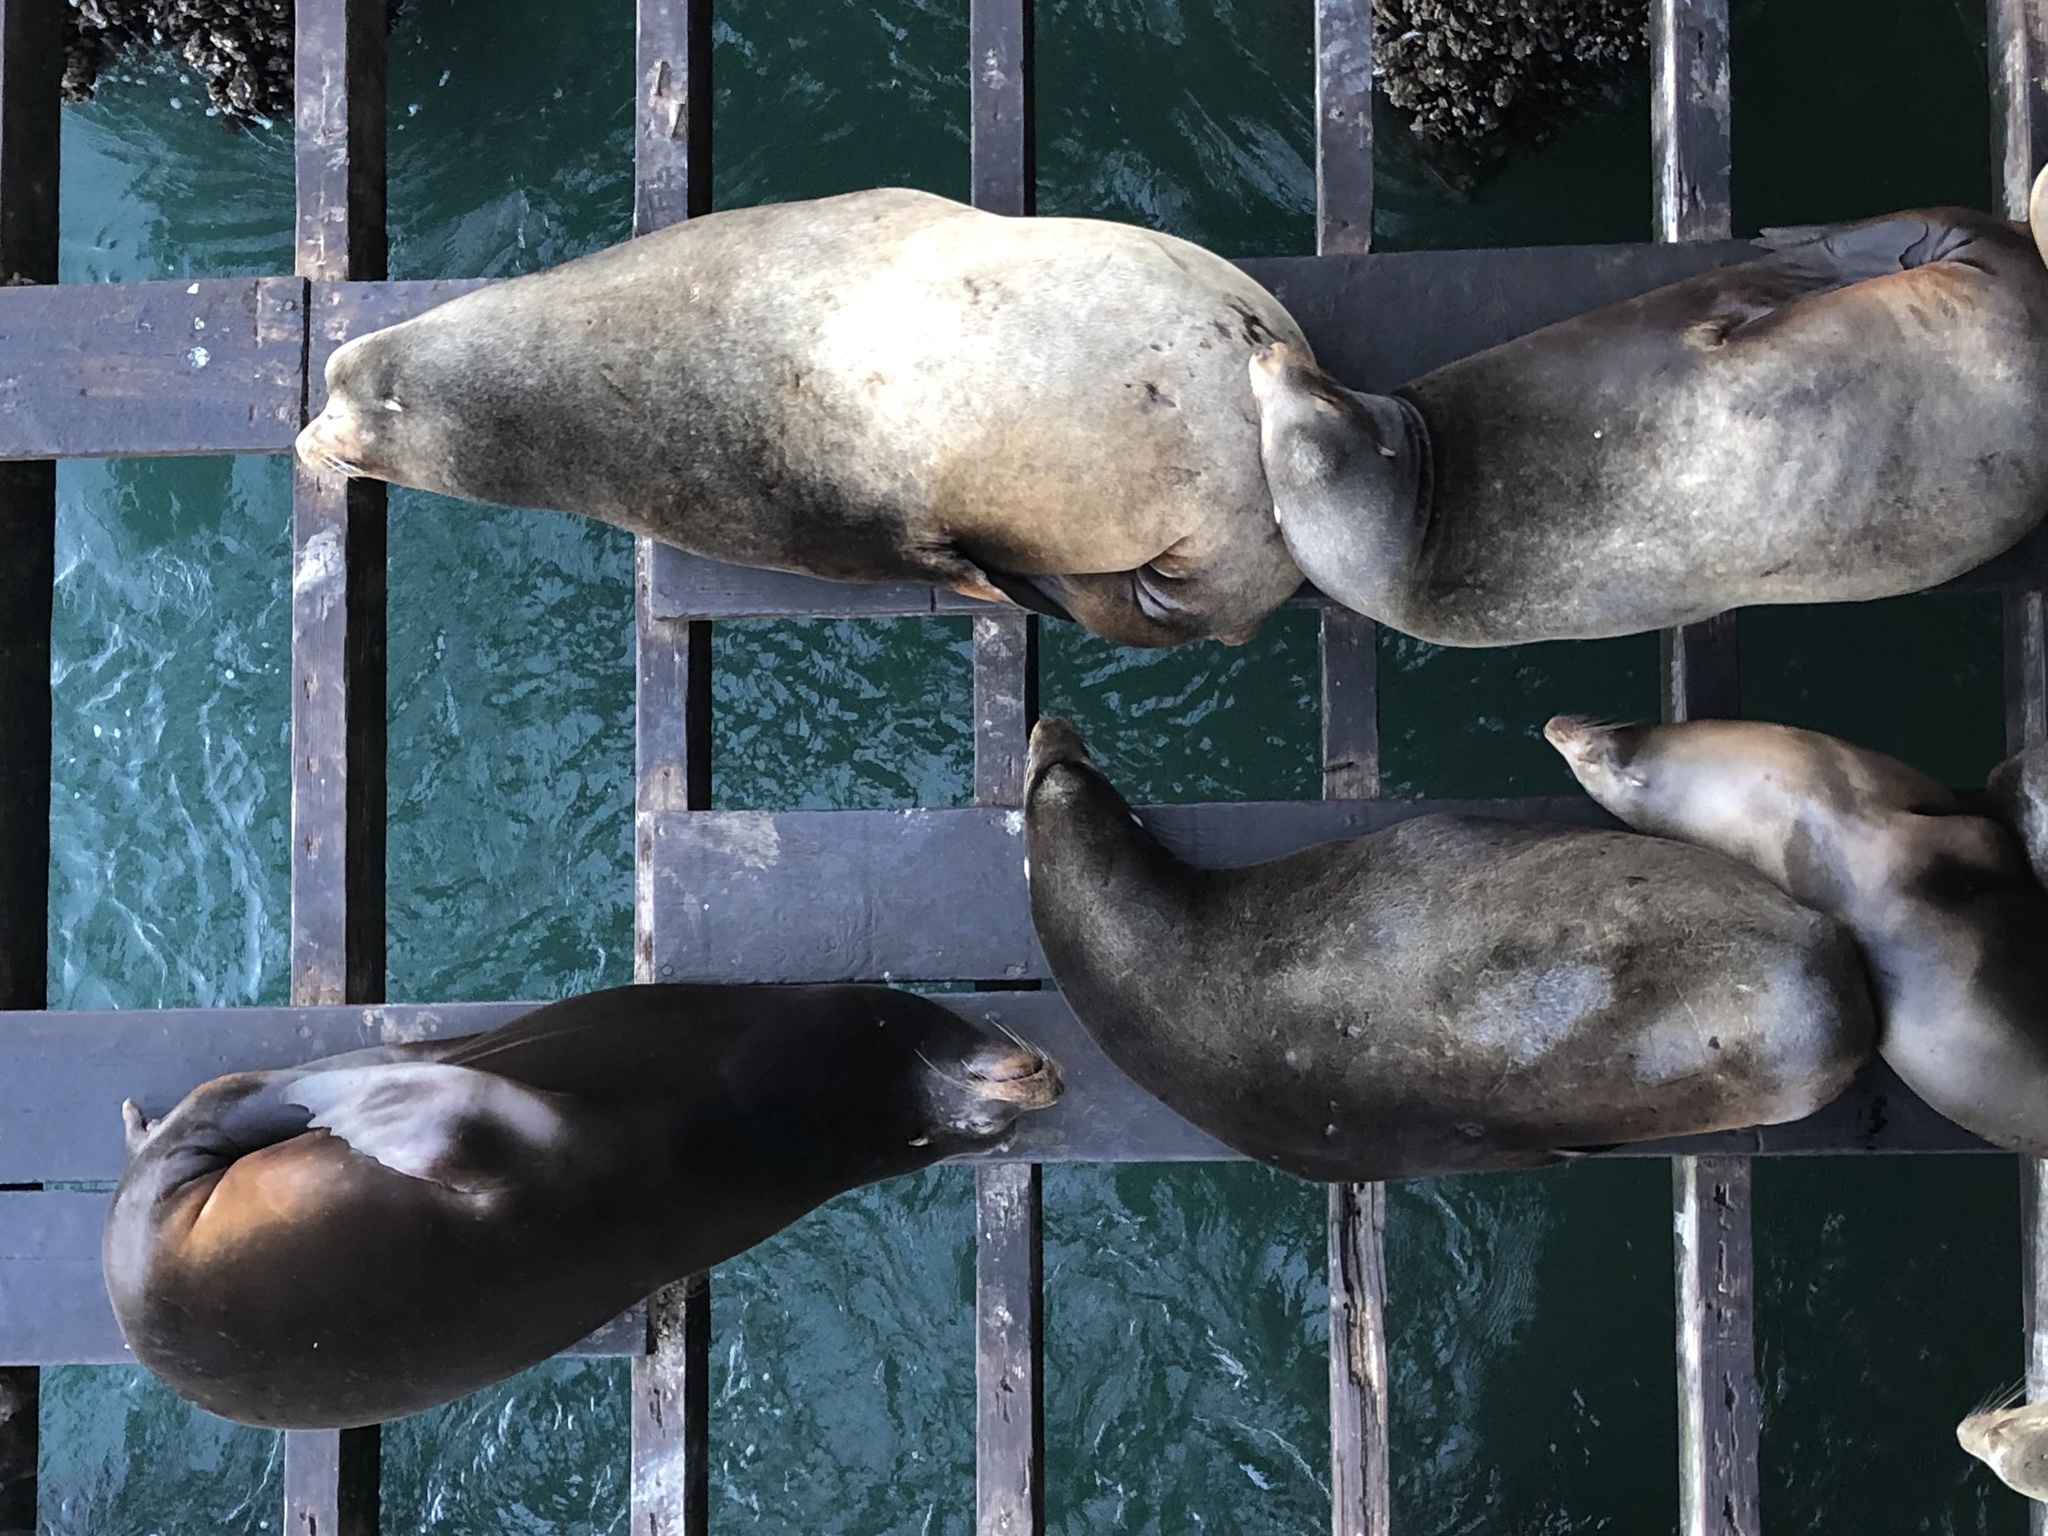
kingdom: Animalia
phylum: Chordata
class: Mammalia
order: Carnivora
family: Otariidae
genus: Zalophus
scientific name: Zalophus californianus
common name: California sea lion
